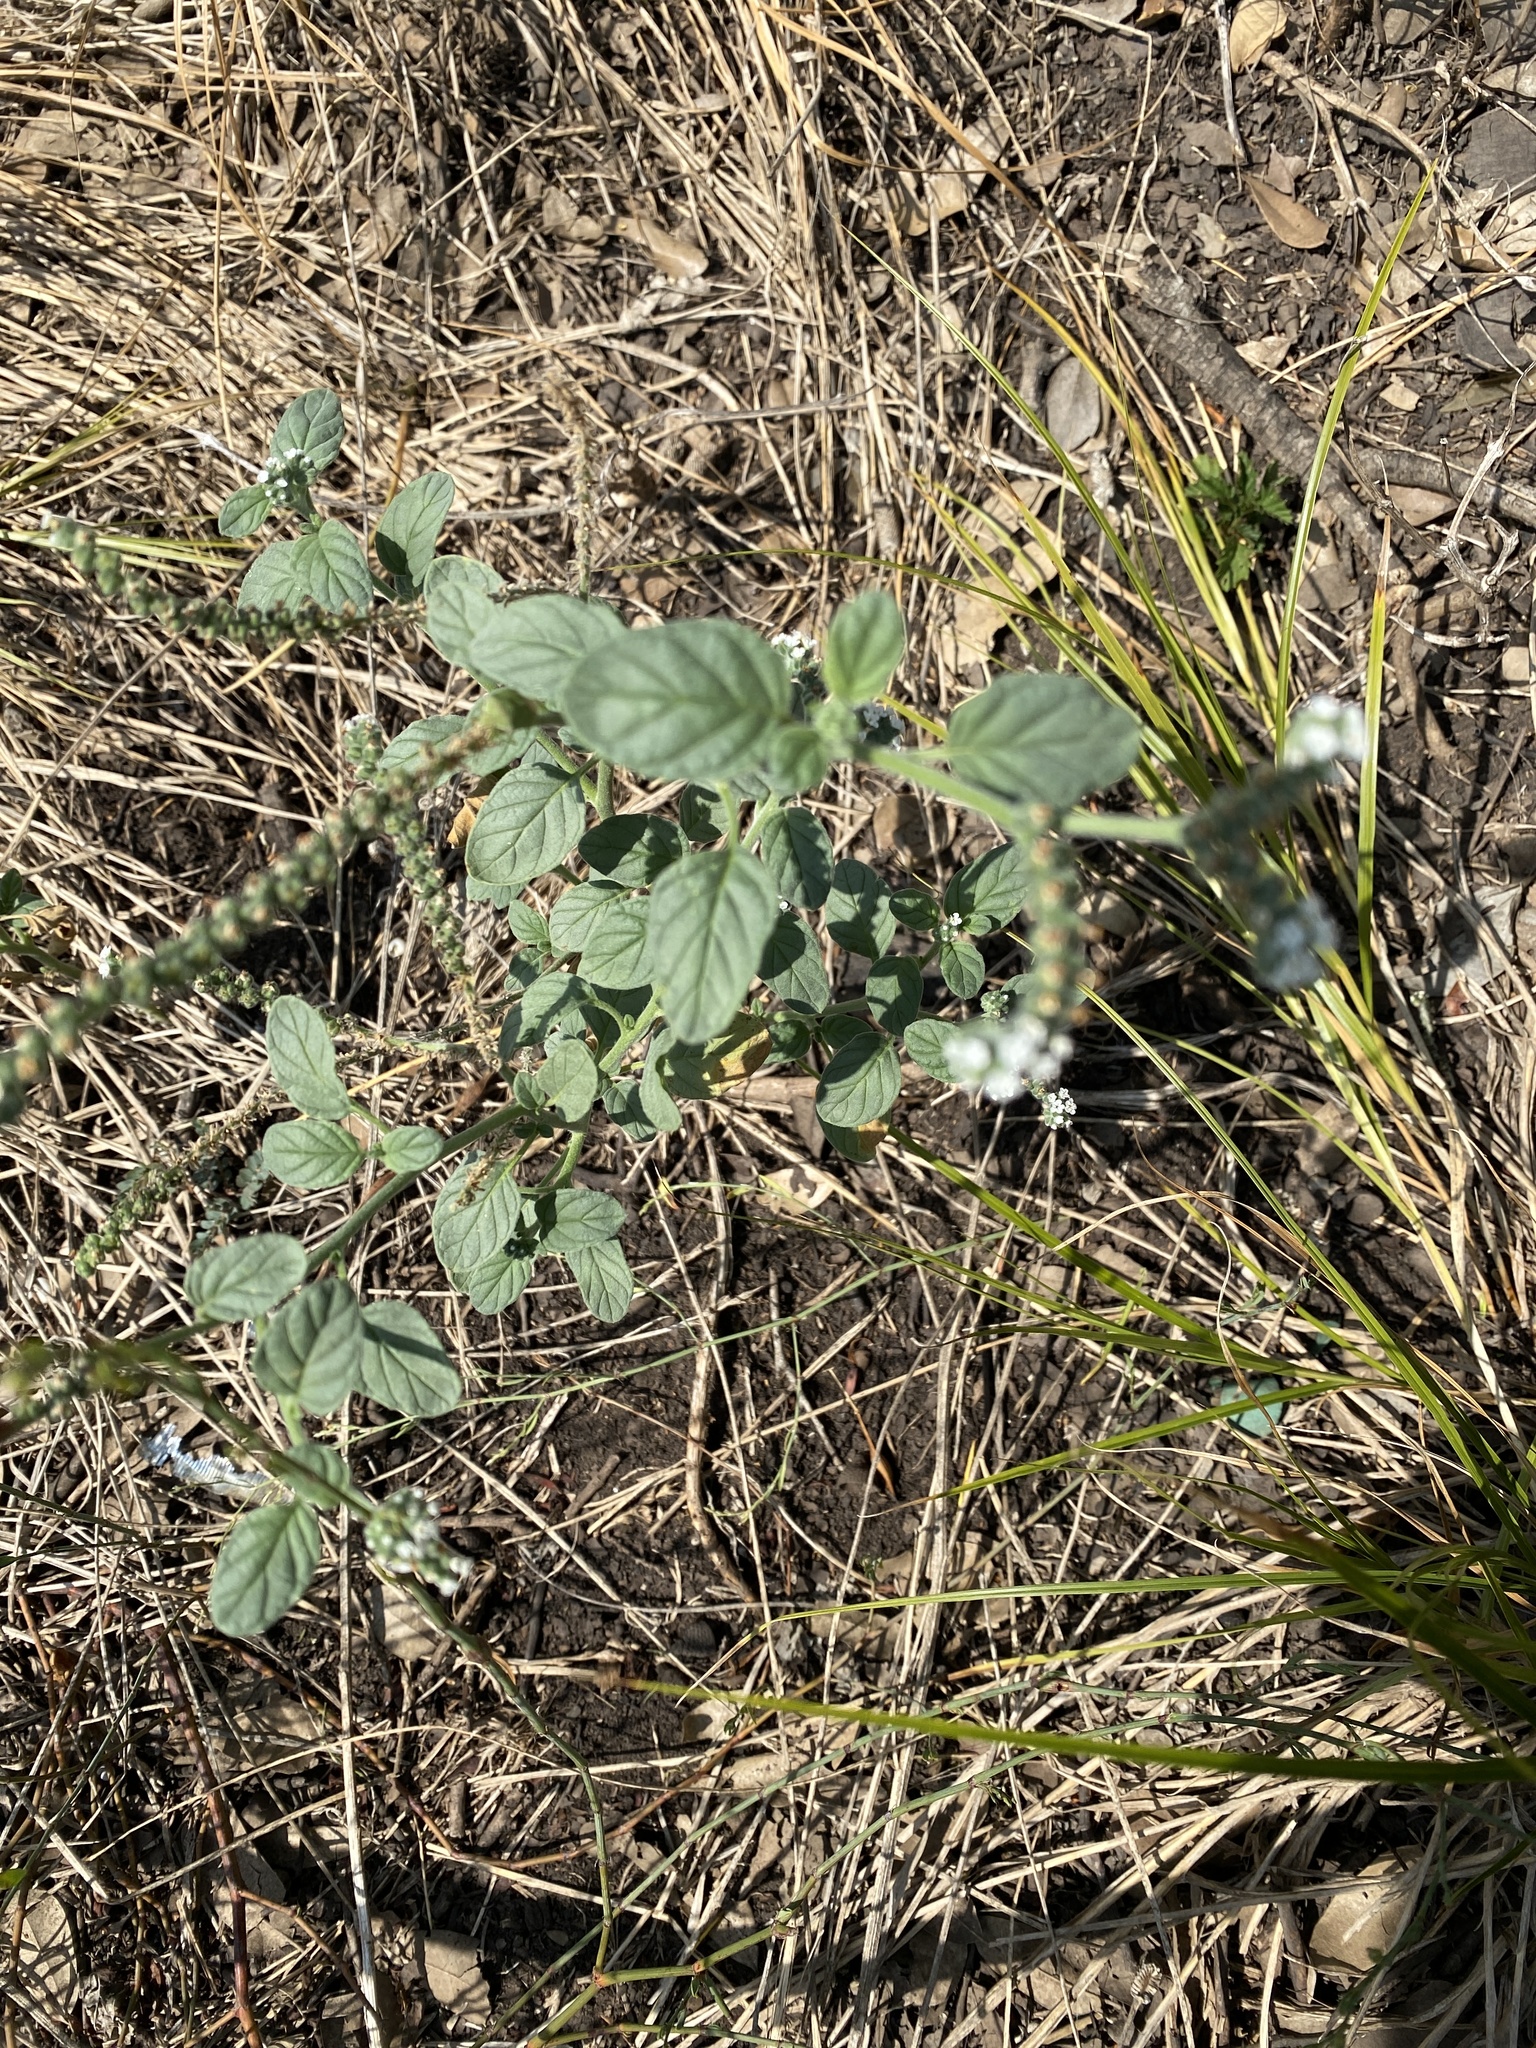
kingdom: Plantae
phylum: Tracheophyta
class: Magnoliopsida
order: Boraginales
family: Heliotropiaceae
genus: Heliotropium
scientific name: Heliotropium angiospermum
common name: Eye bright
